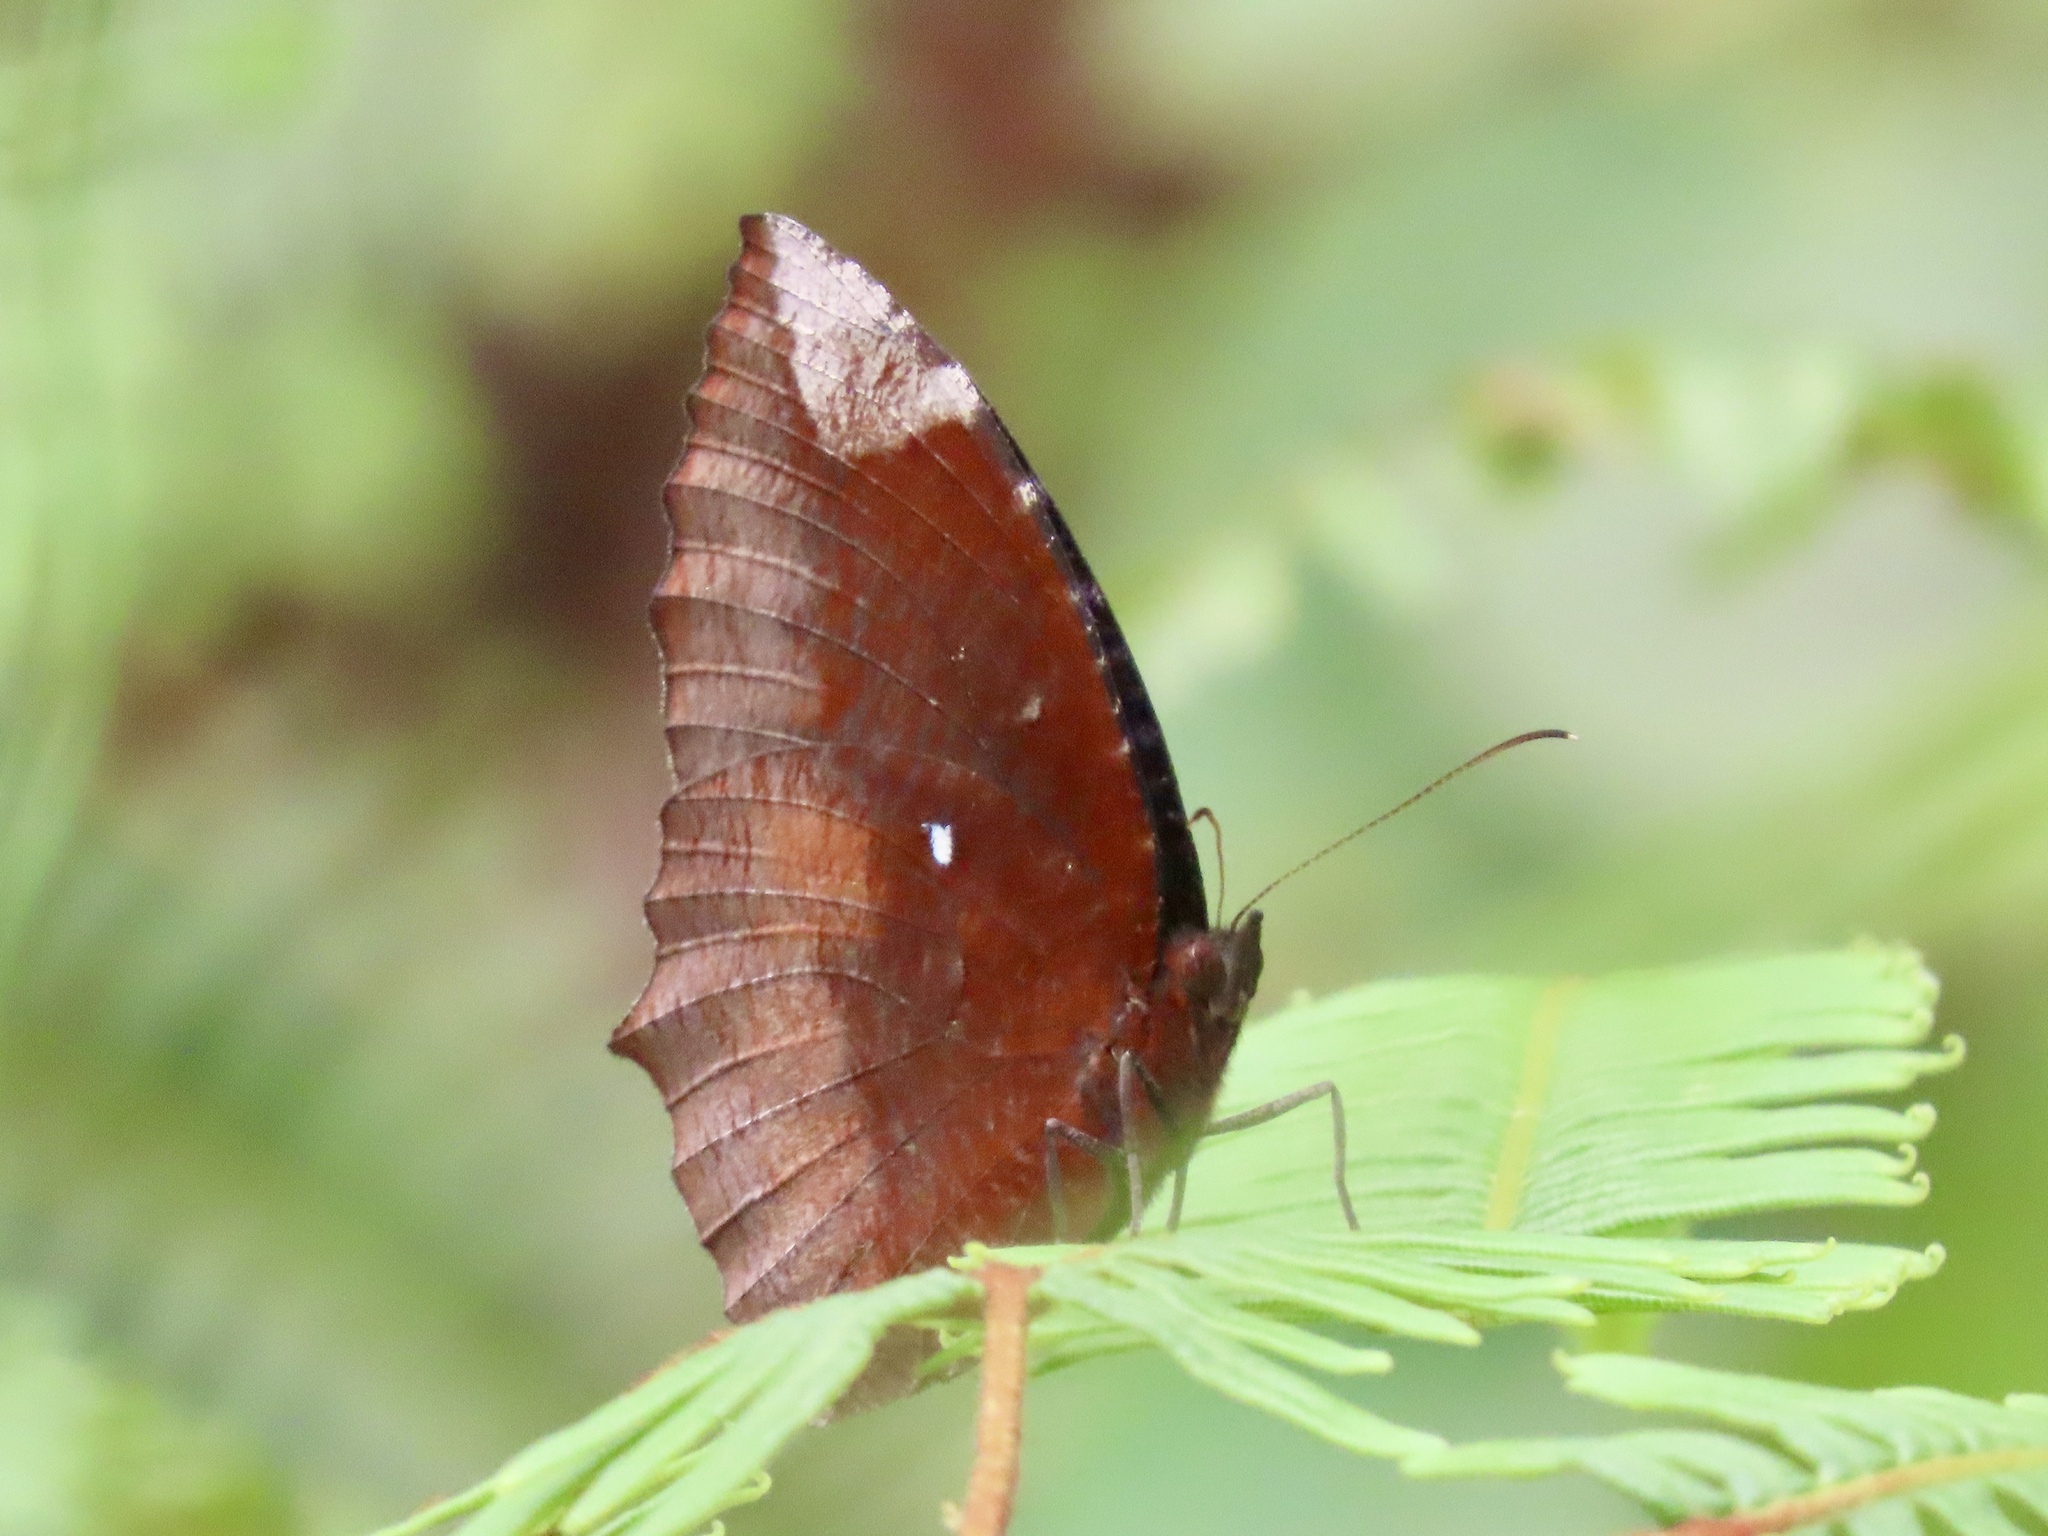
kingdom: Animalia
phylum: Arthropoda
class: Insecta
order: Lepidoptera
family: Nymphalidae
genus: Elymnias
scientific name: Elymnias hypermnestra
